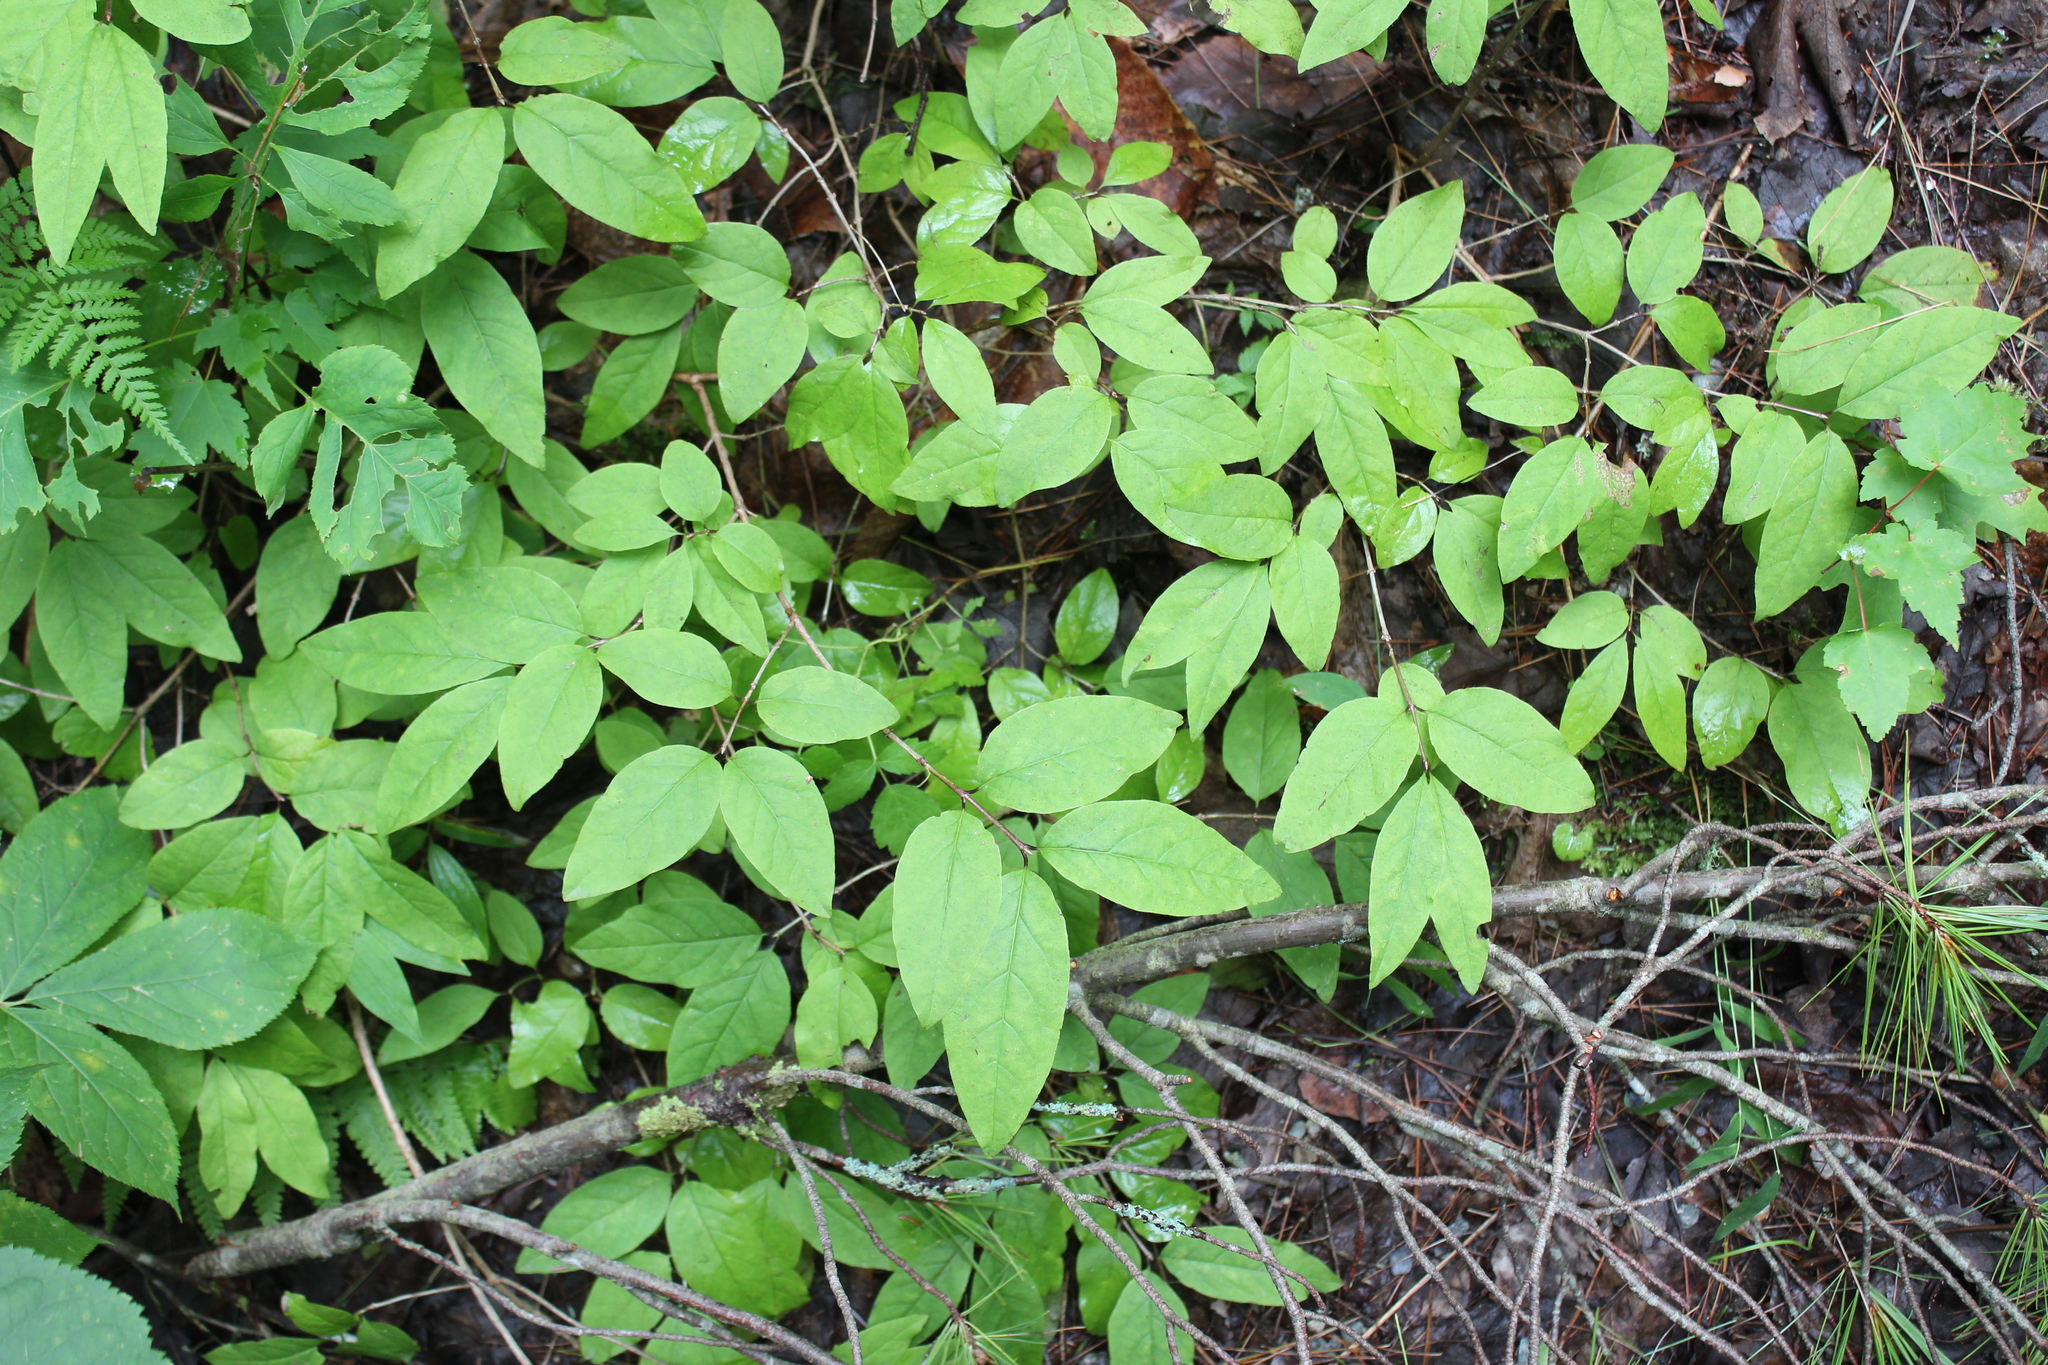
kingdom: Plantae
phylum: Tracheophyta
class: Magnoliopsida
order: Dipsacales
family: Caprifoliaceae
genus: Lonicera
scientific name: Lonicera canadensis
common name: American fly-honeysuckle
